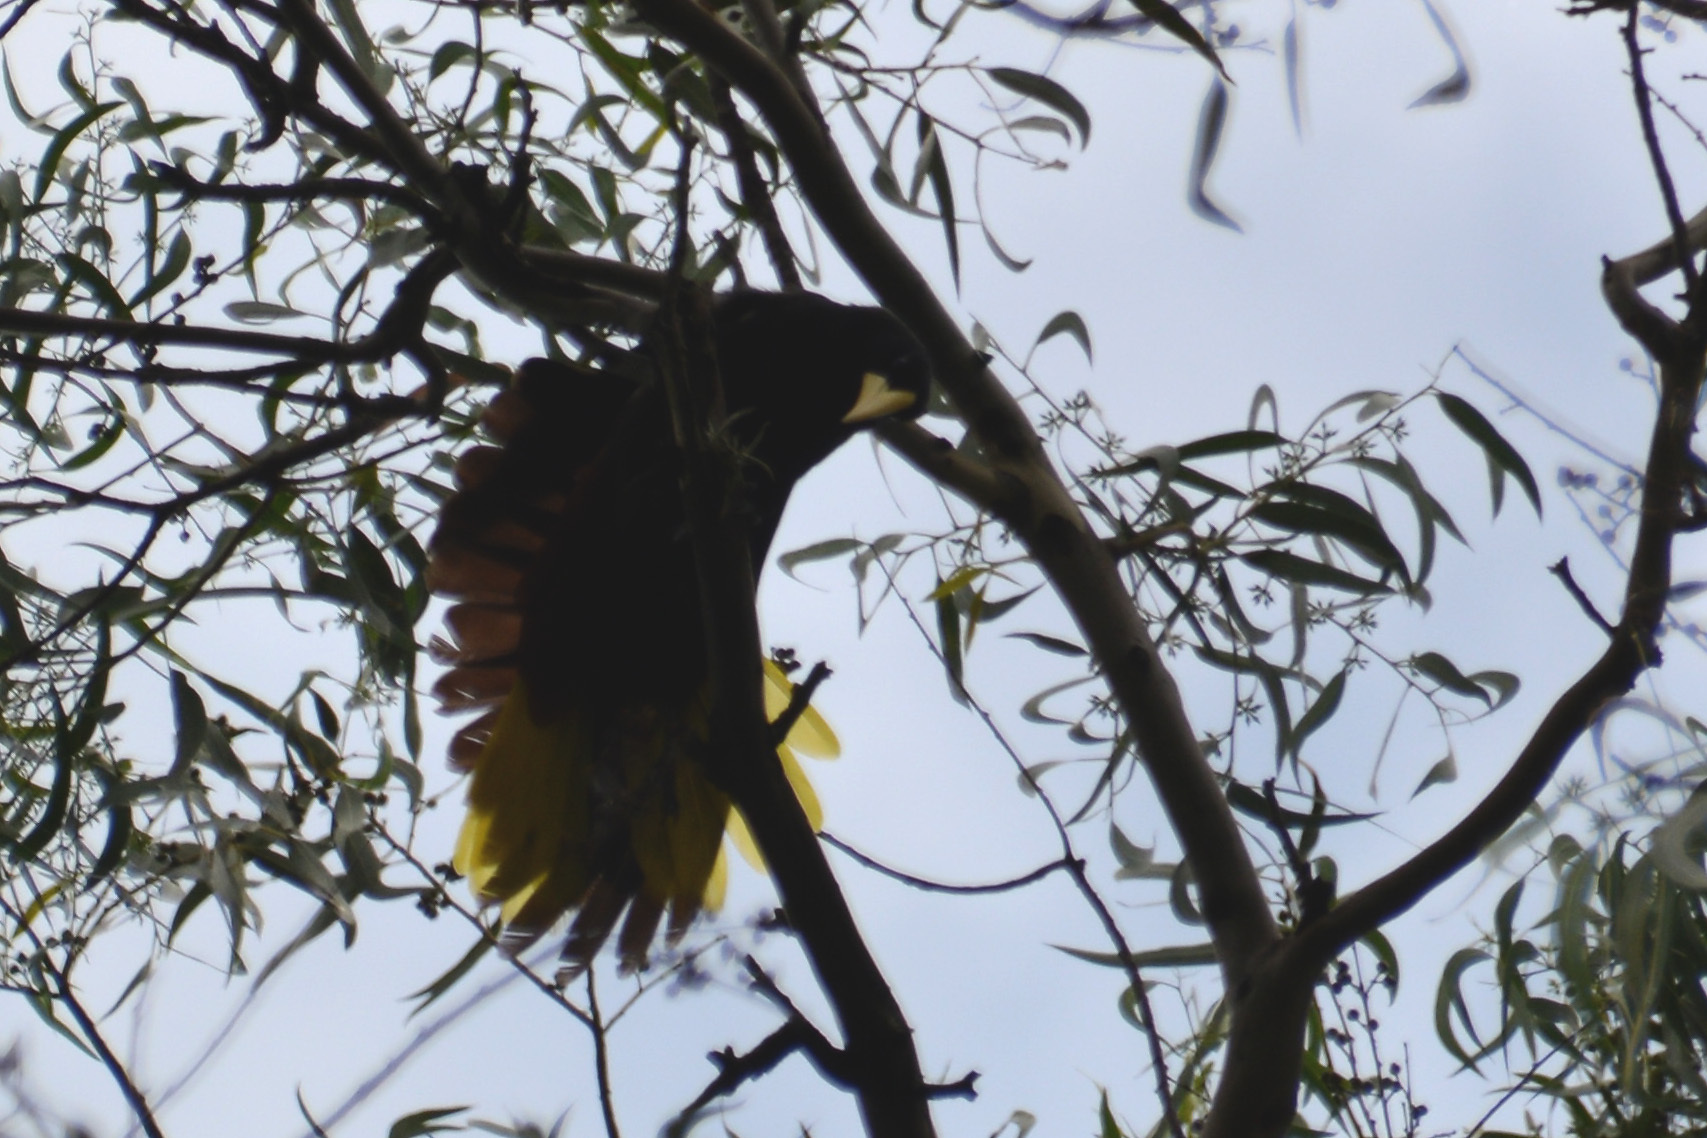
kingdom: Animalia
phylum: Chordata
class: Aves
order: Passeriformes
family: Icteridae
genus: Psarocolius
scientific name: Psarocolius decumanus
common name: Crested oropendola
